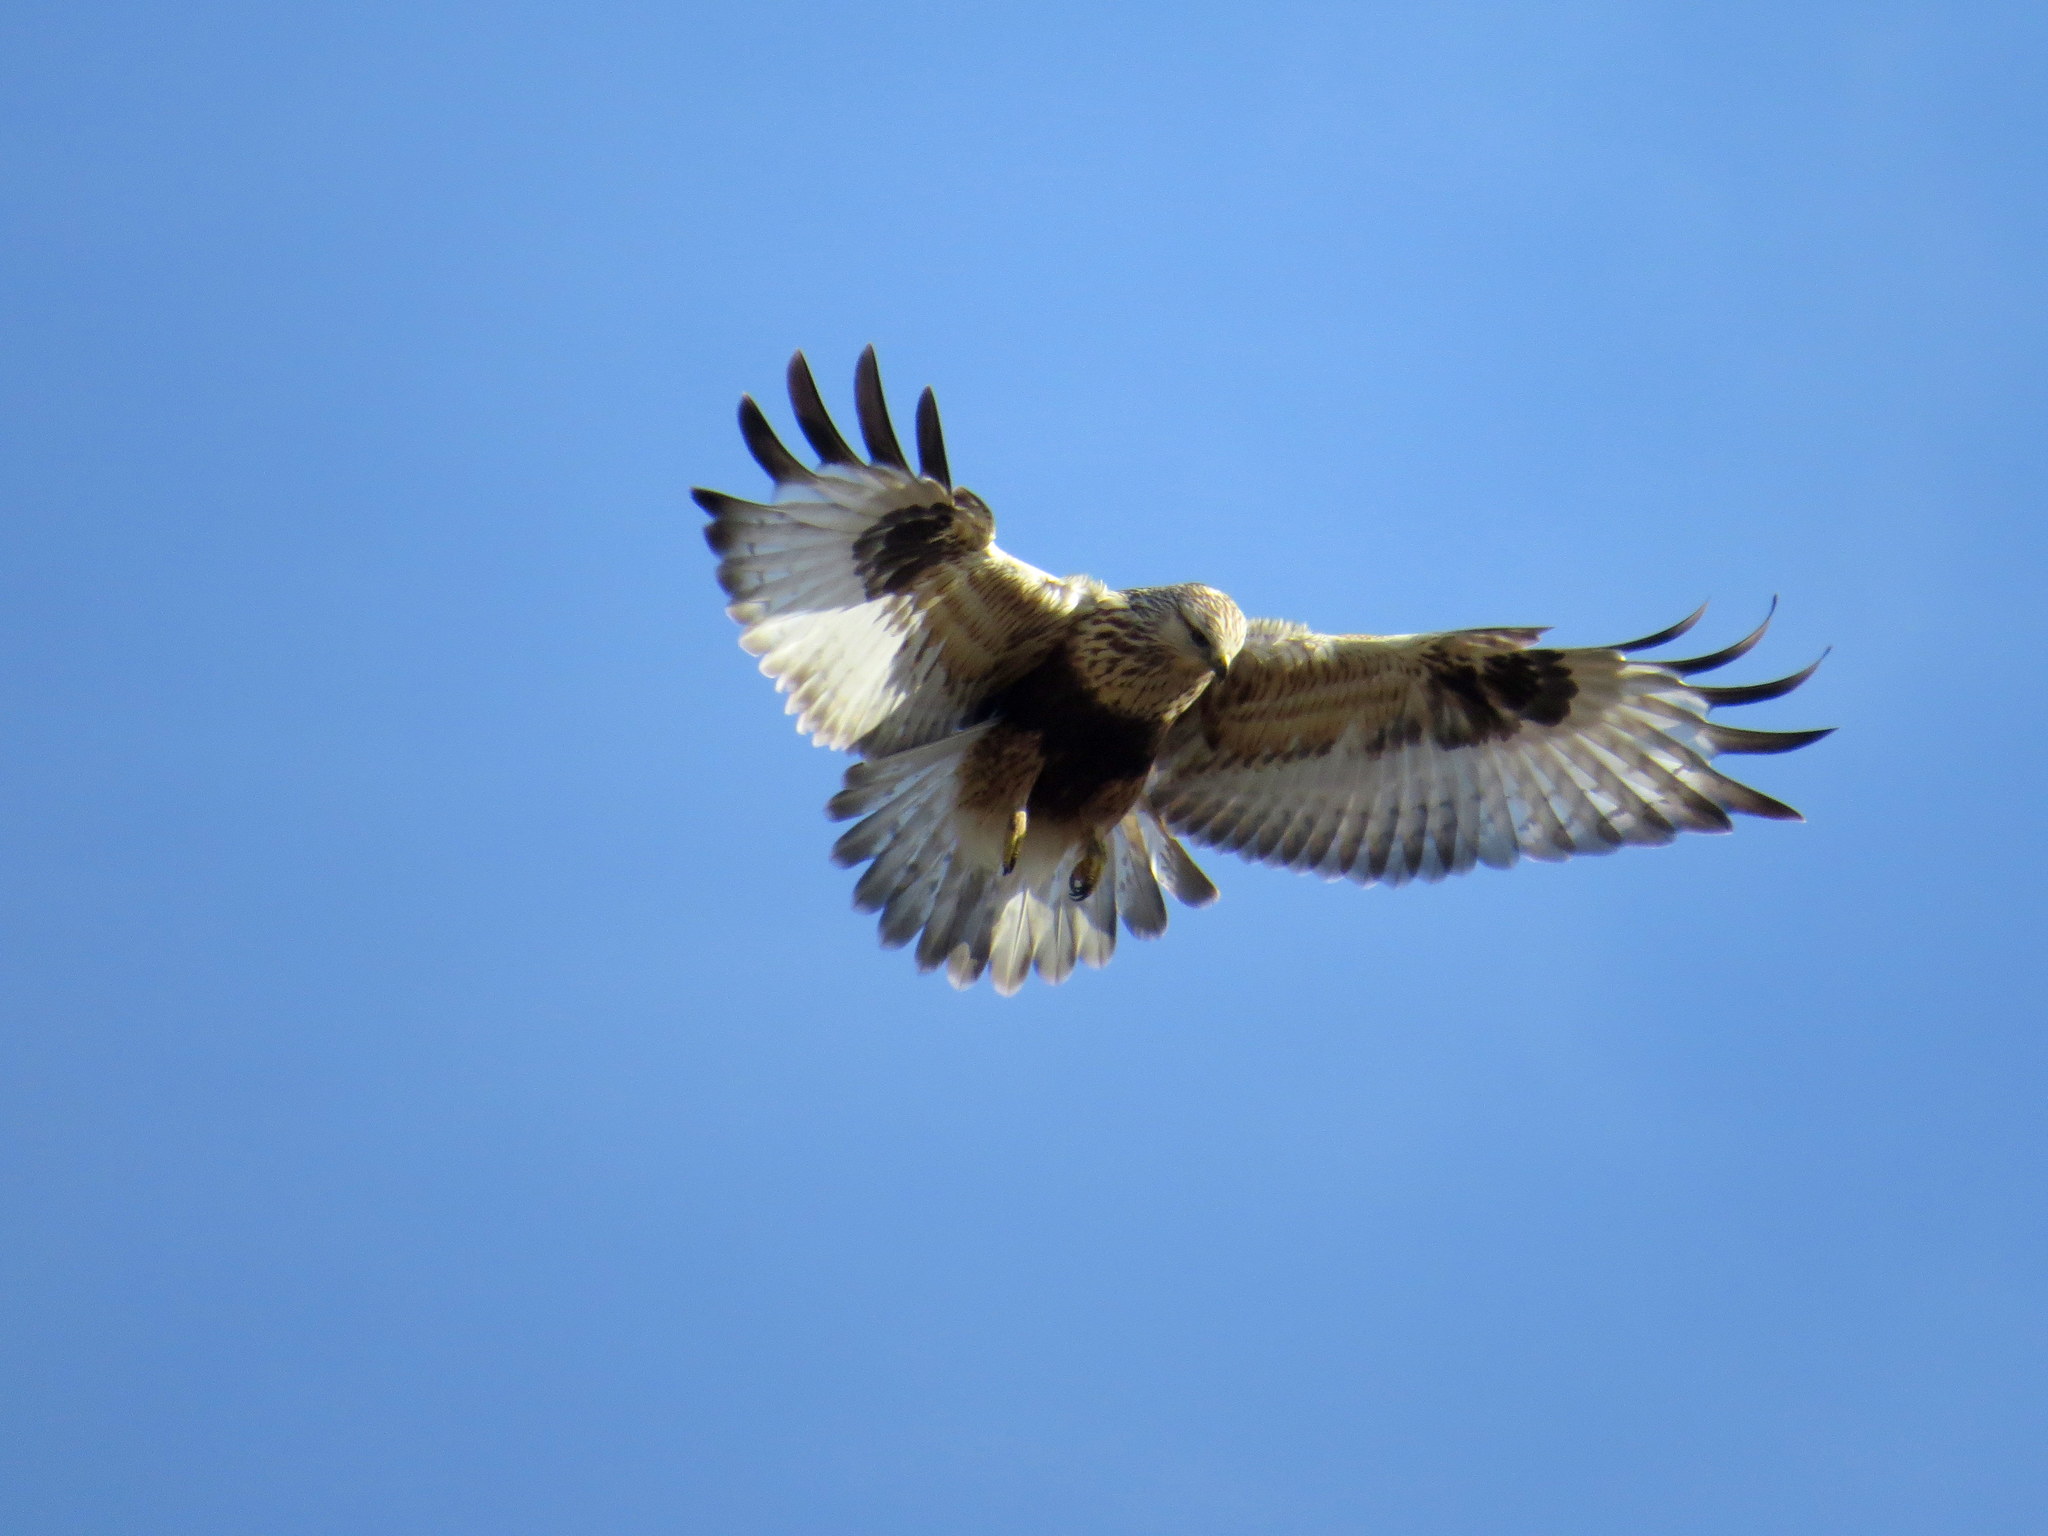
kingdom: Animalia
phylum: Chordata
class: Aves
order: Accipitriformes
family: Accipitridae
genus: Buteo
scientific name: Buteo lagopus
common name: Rough-legged buzzard
